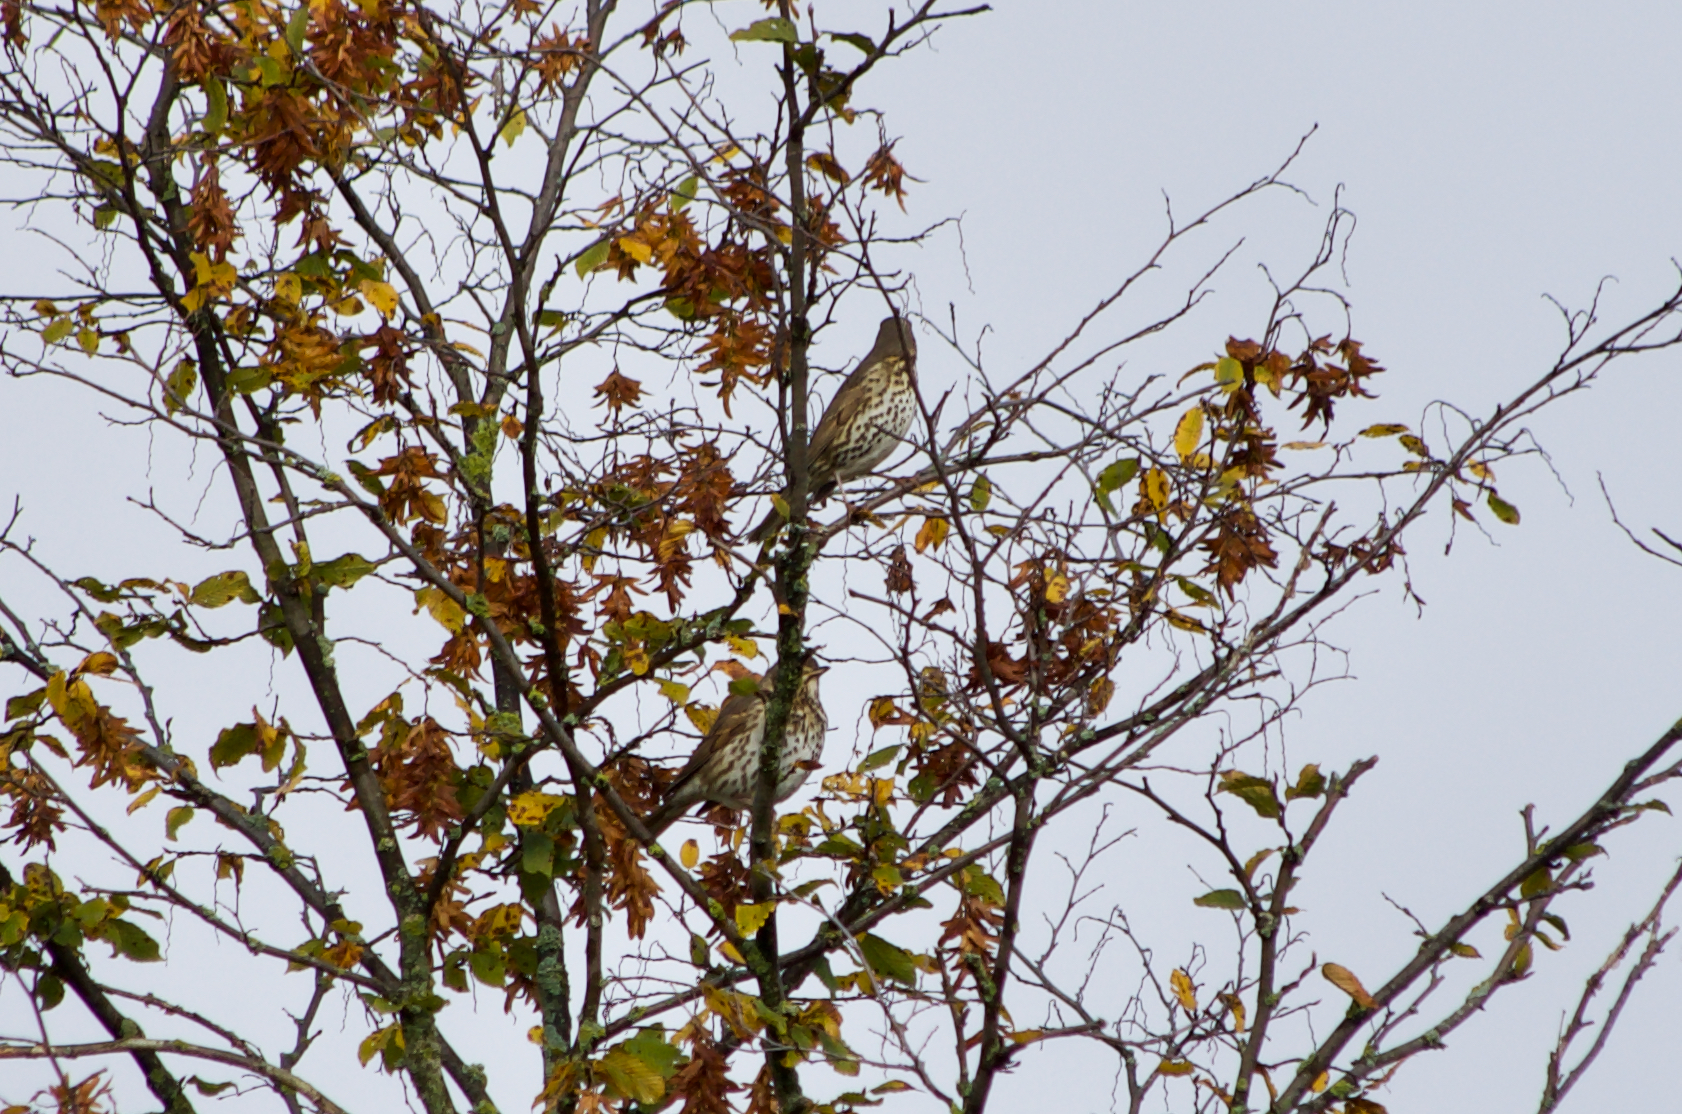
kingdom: Animalia
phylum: Chordata
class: Aves
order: Passeriformes
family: Turdidae
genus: Turdus
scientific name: Turdus philomelos
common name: Song thrush
